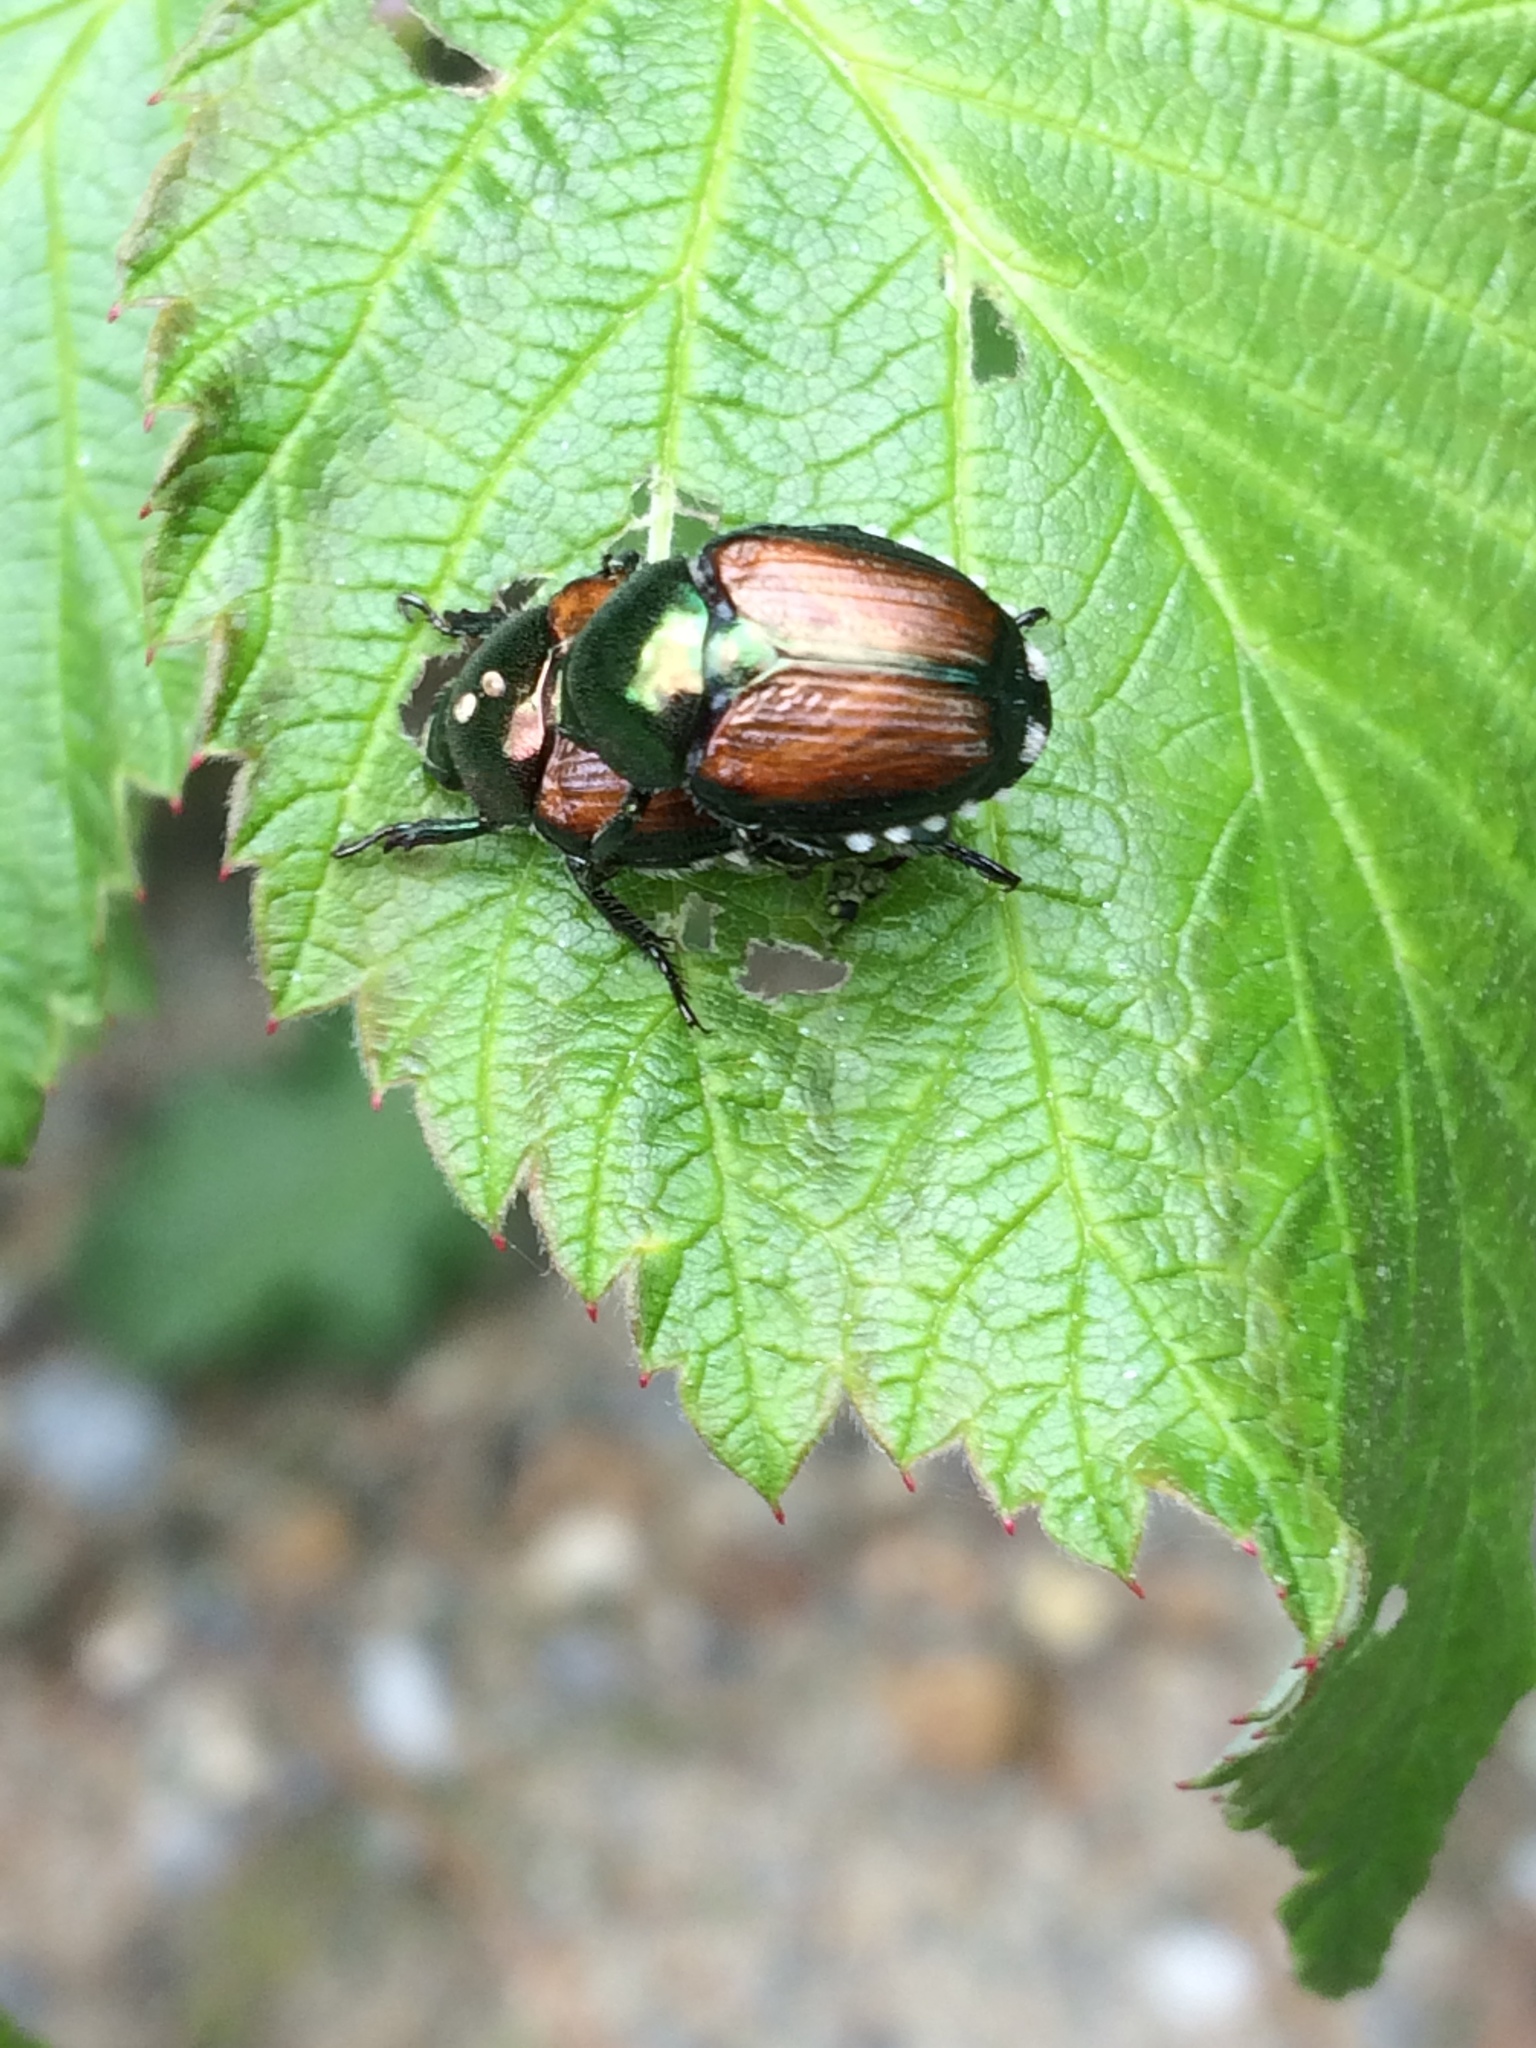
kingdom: Animalia
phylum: Arthropoda
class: Insecta
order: Coleoptera
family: Scarabaeidae
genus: Popillia
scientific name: Popillia japonica
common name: Japanese beetle
